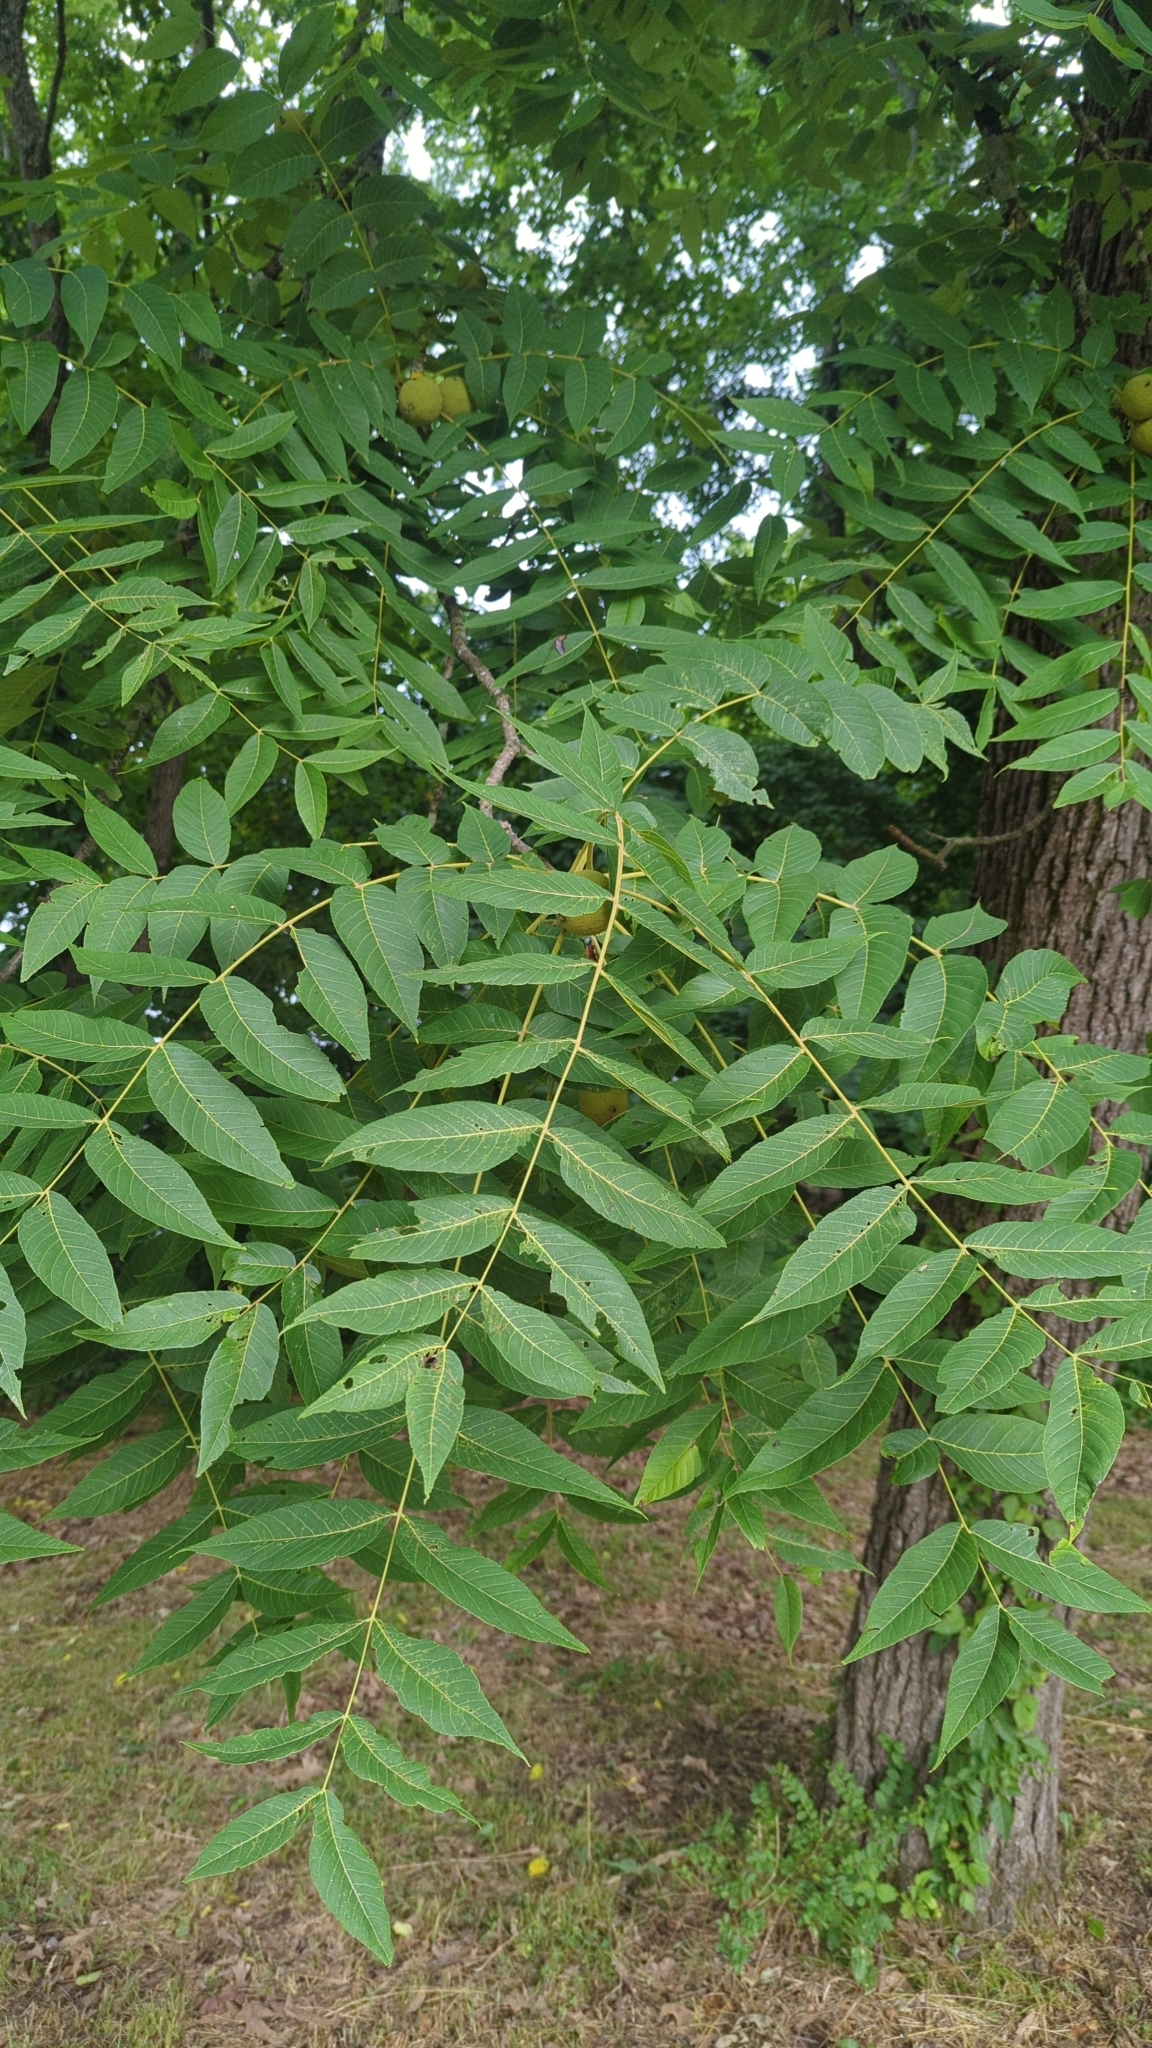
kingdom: Plantae
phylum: Tracheophyta
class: Magnoliopsida
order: Fagales
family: Juglandaceae
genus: Juglans
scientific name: Juglans nigra
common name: Black walnut
